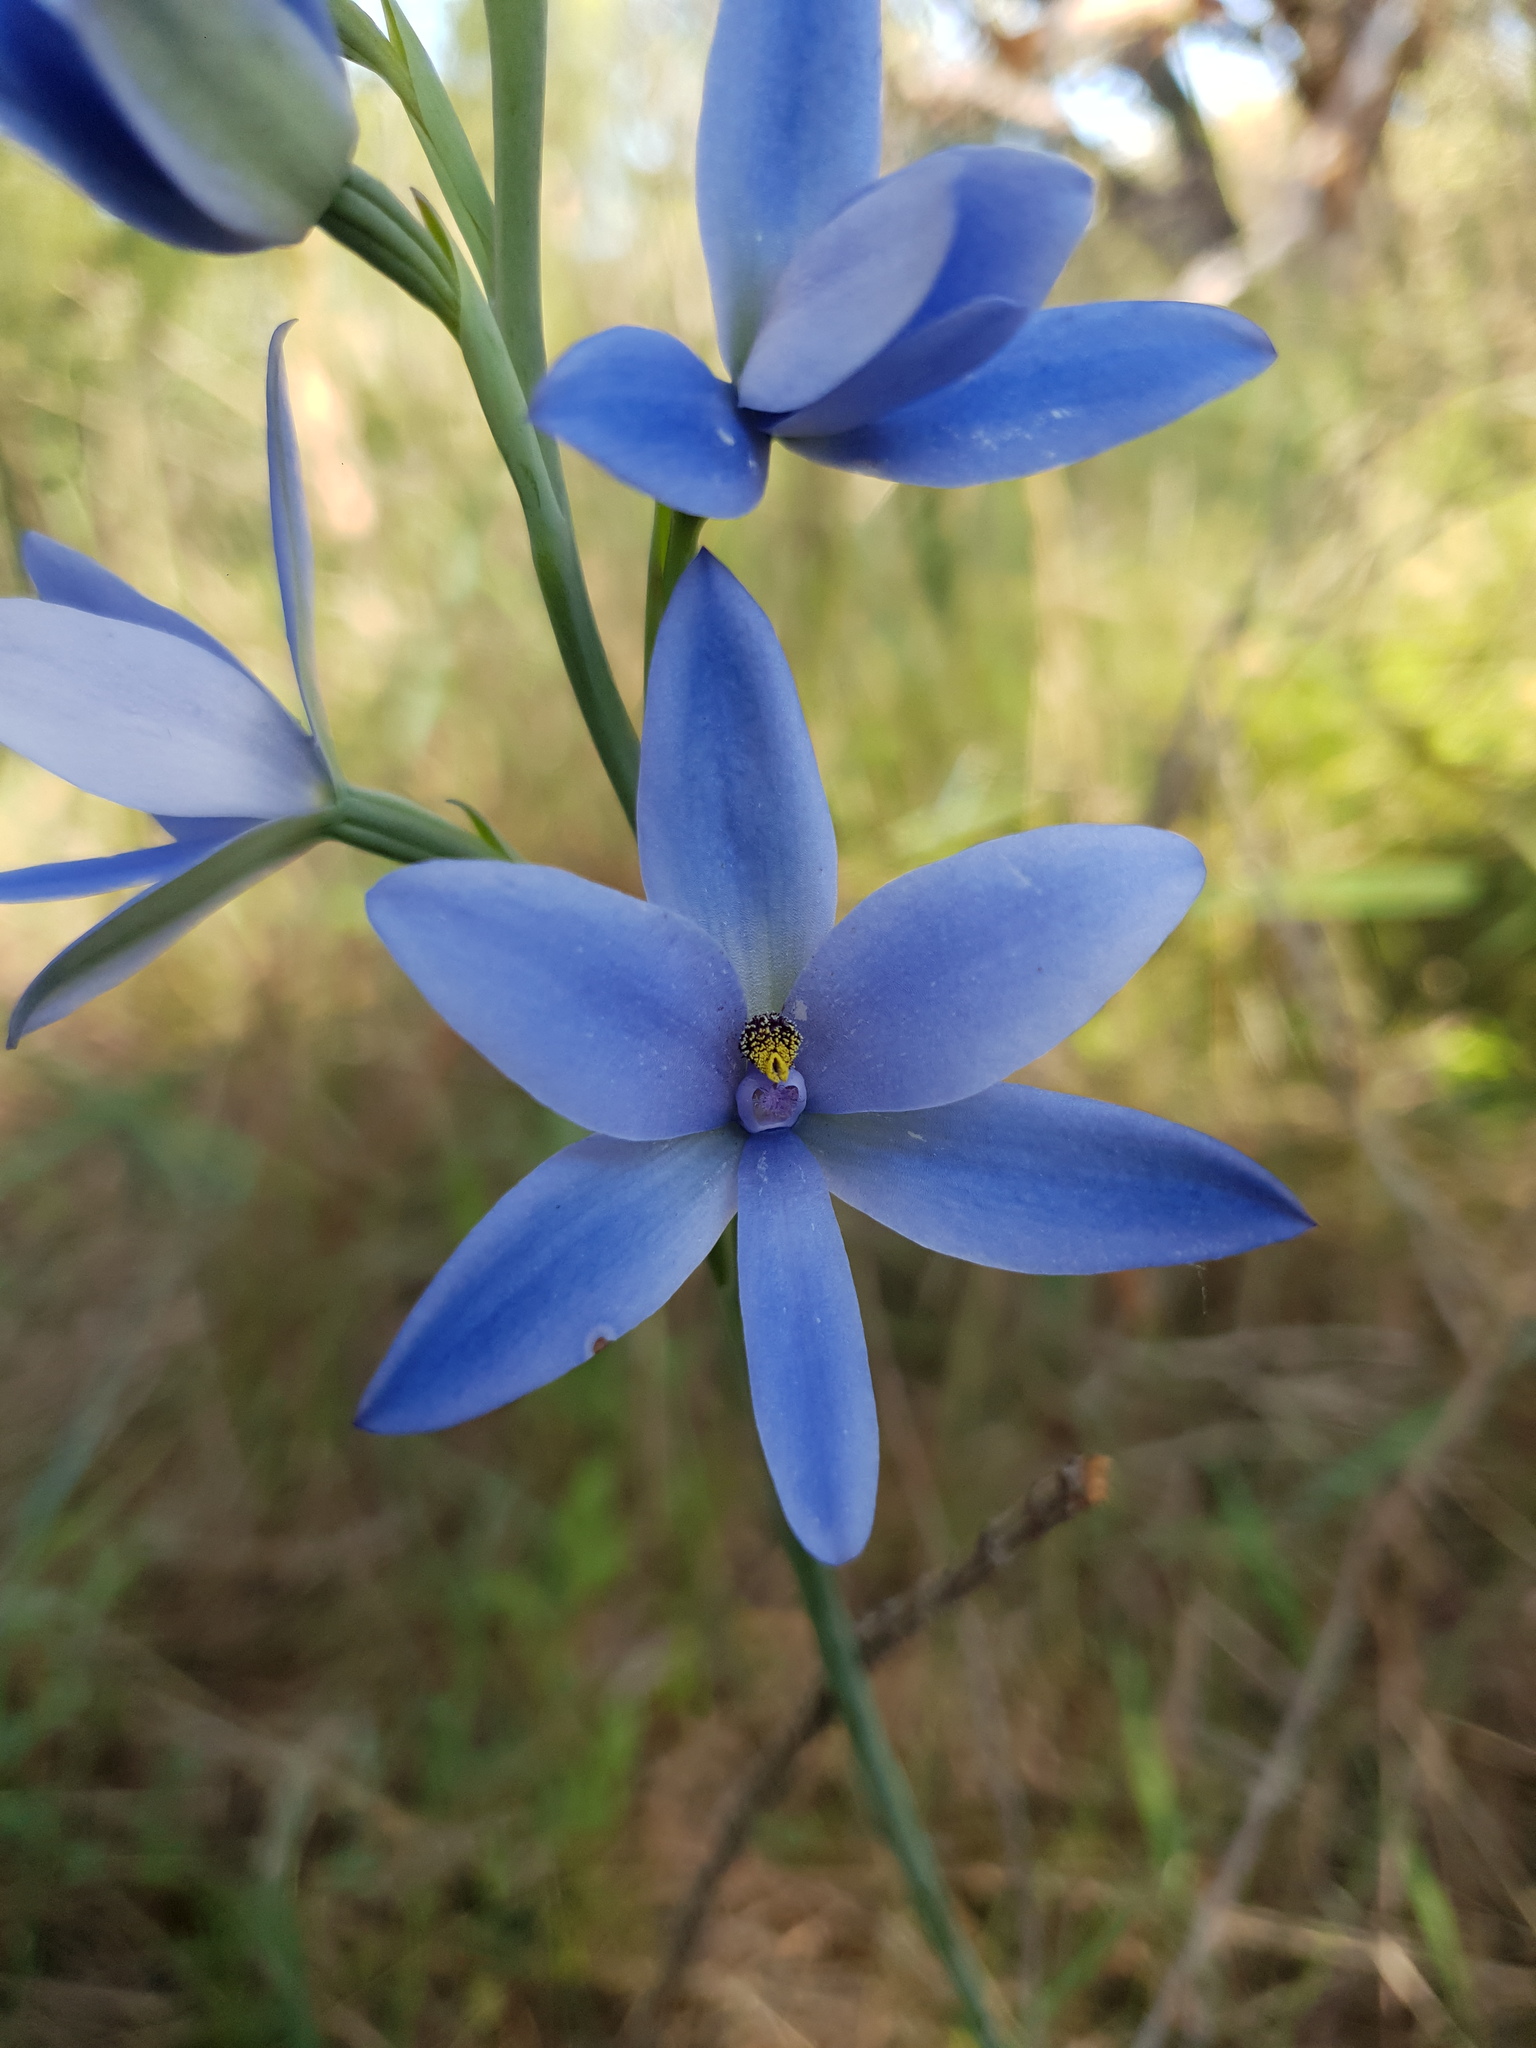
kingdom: Plantae
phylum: Tracheophyta
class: Liliopsida
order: Asparagales
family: Orchidaceae
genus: Thelymitra
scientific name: Thelymitra crinita
